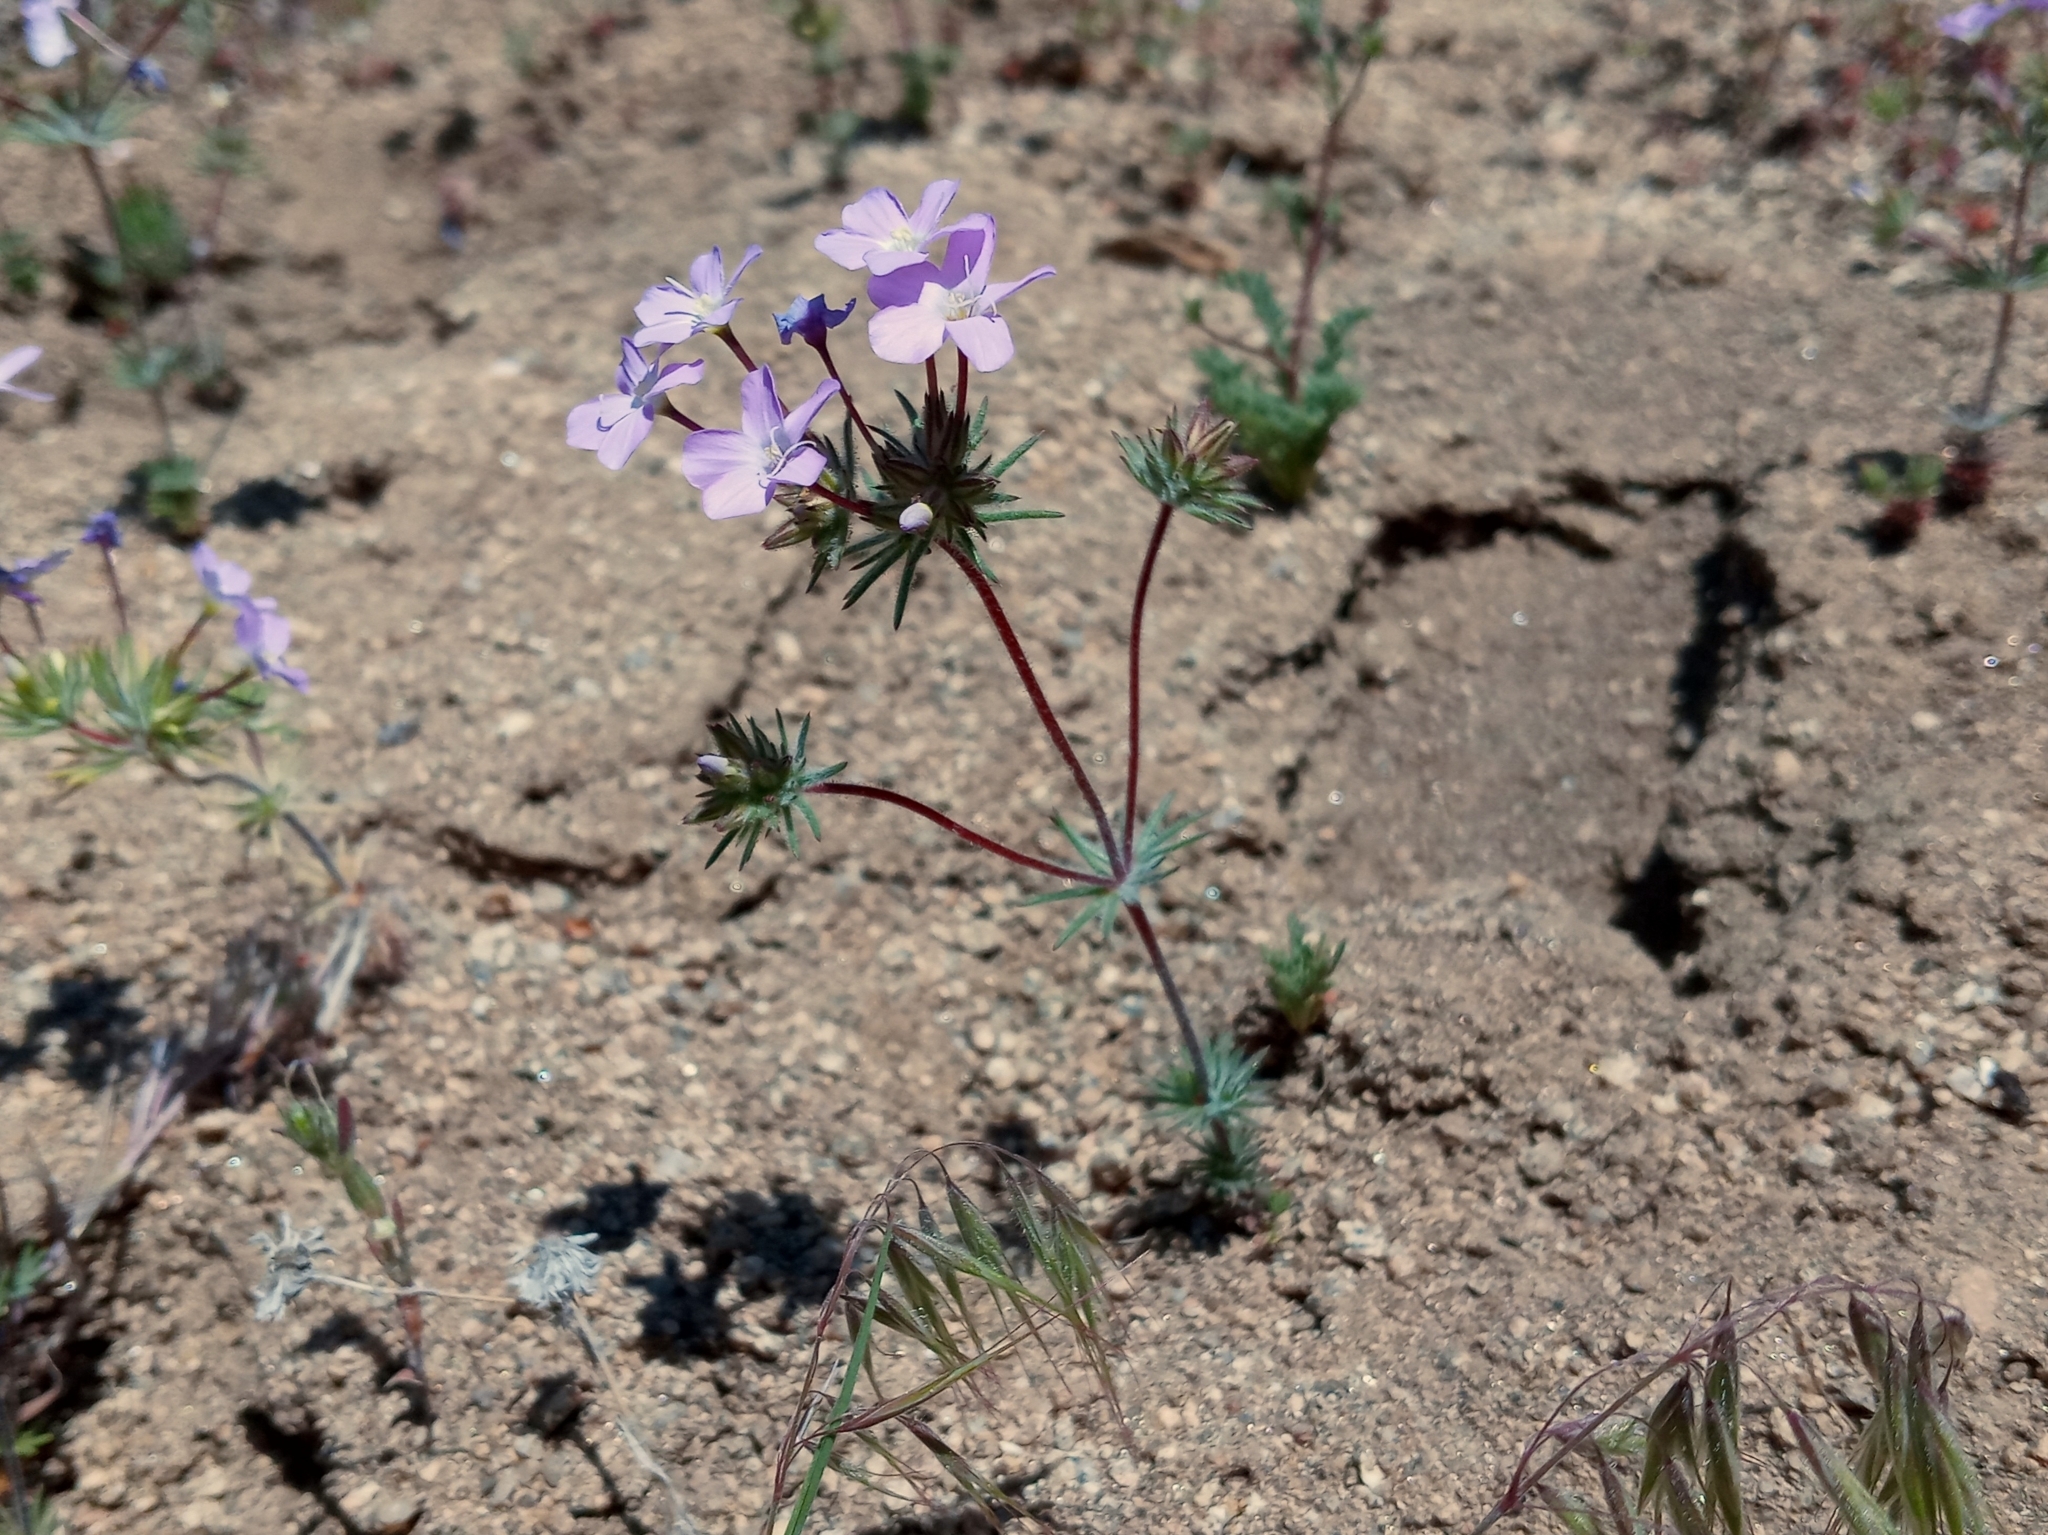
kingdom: Plantae
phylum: Tracheophyta
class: Magnoliopsida
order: Ericales
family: Polemoniaceae
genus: Leptosiphon
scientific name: Leptosiphon breviculus
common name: Mojave linanthus
